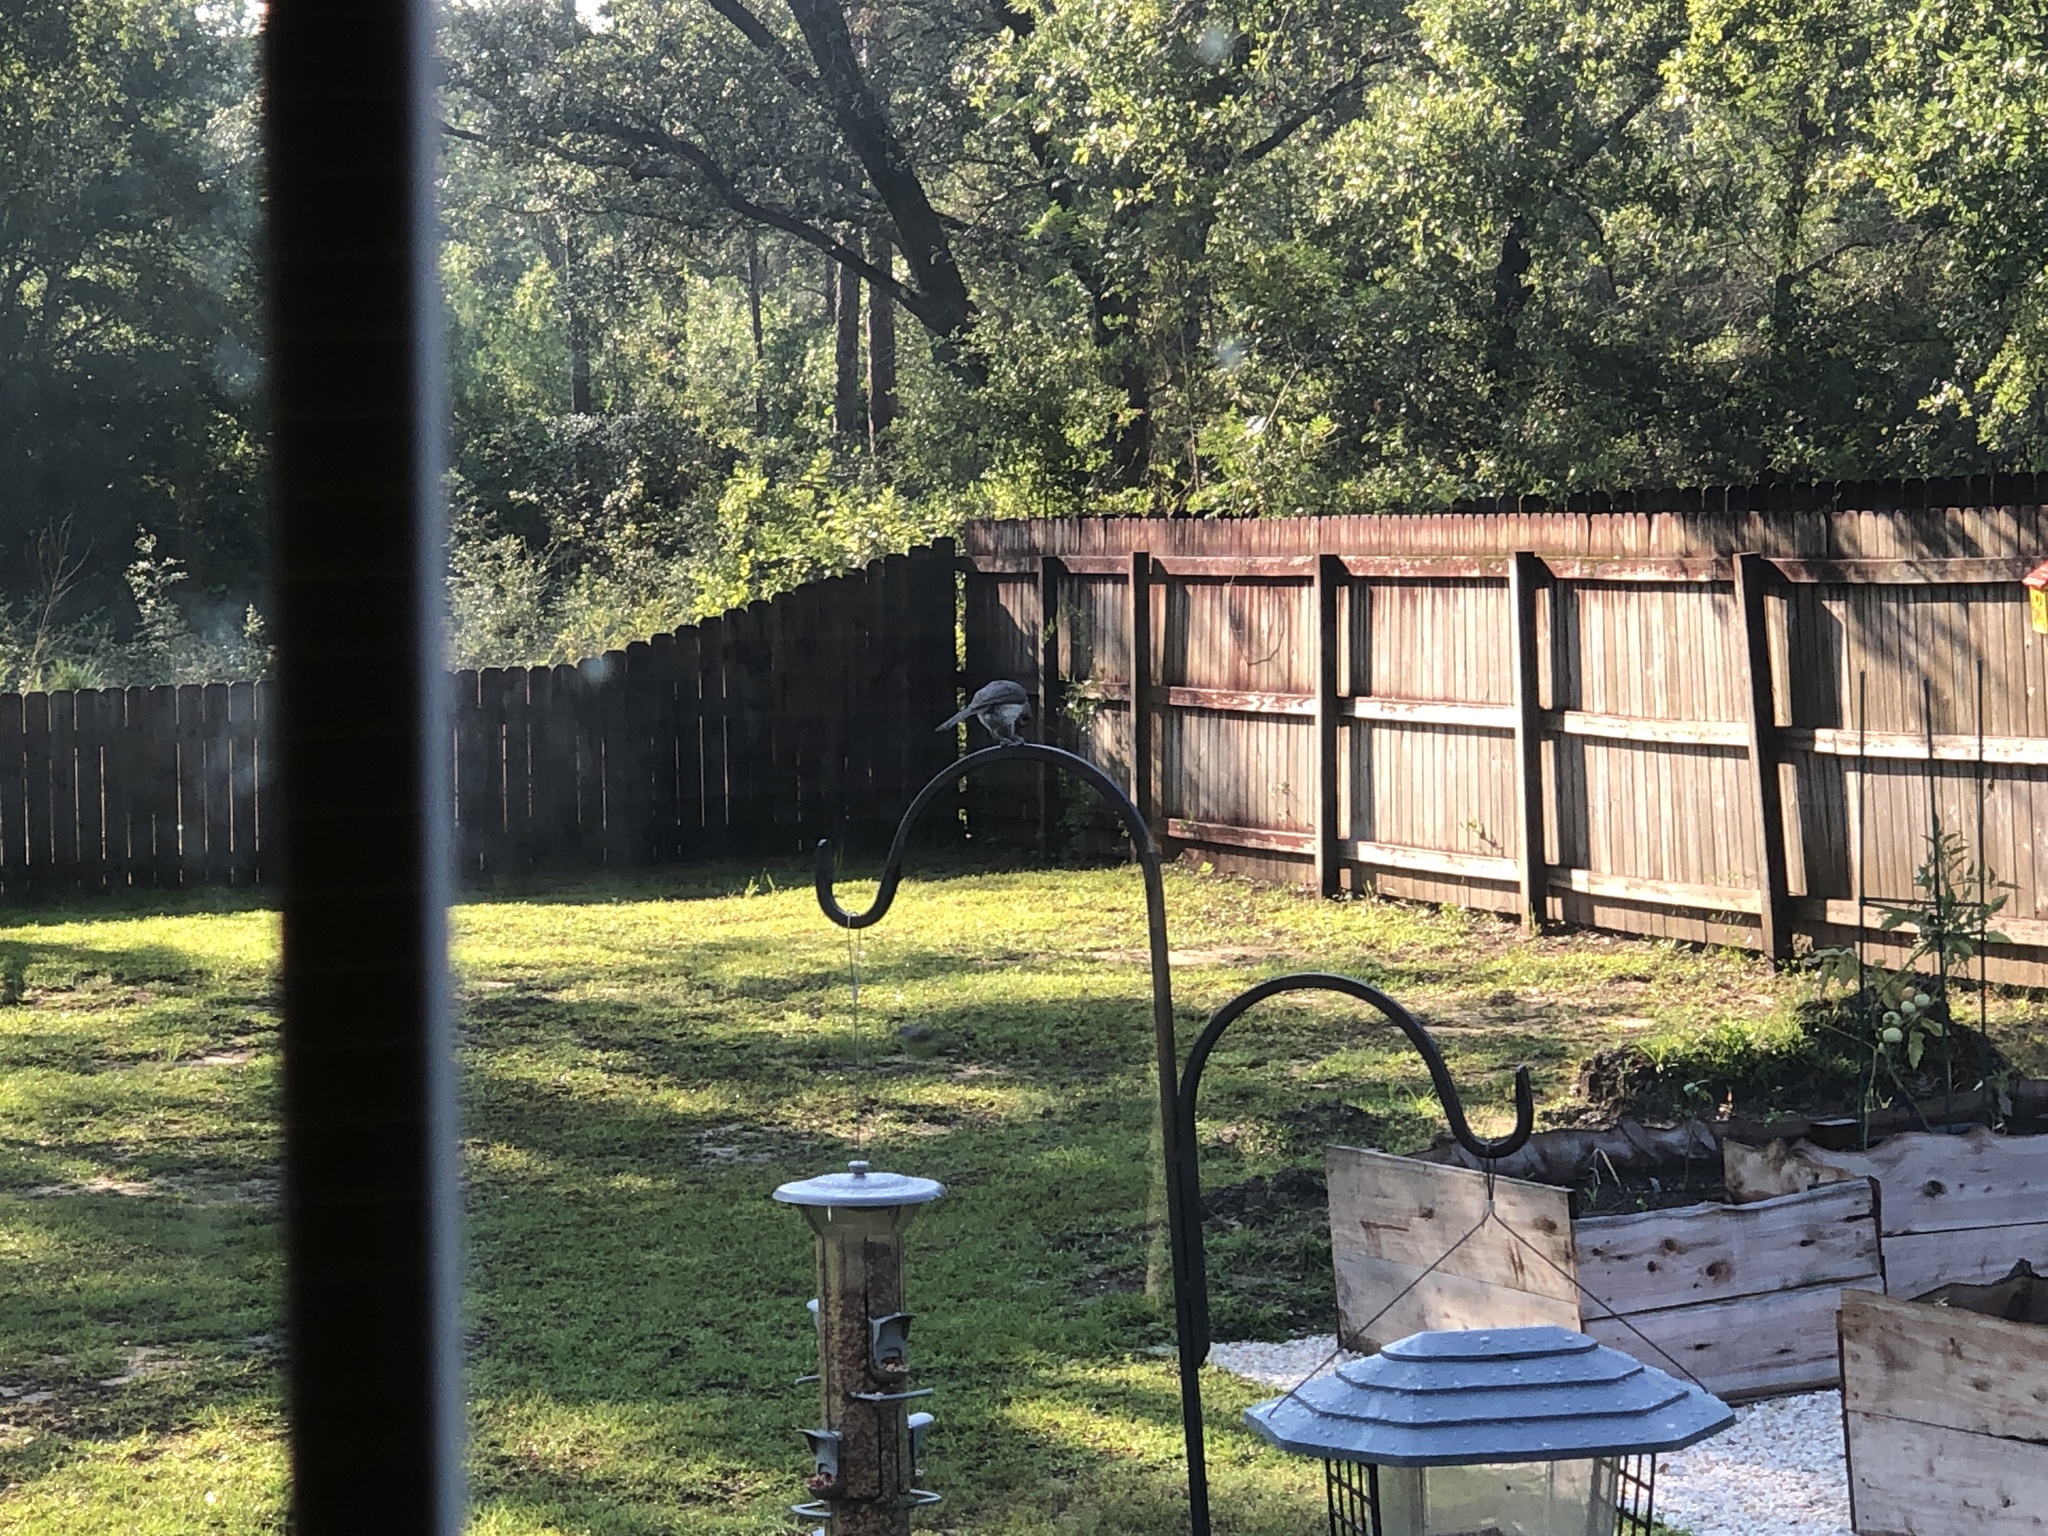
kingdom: Animalia
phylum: Chordata
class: Aves
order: Passeriformes
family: Paridae
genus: Baeolophus
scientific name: Baeolophus bicolor
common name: Tufted titmouse
